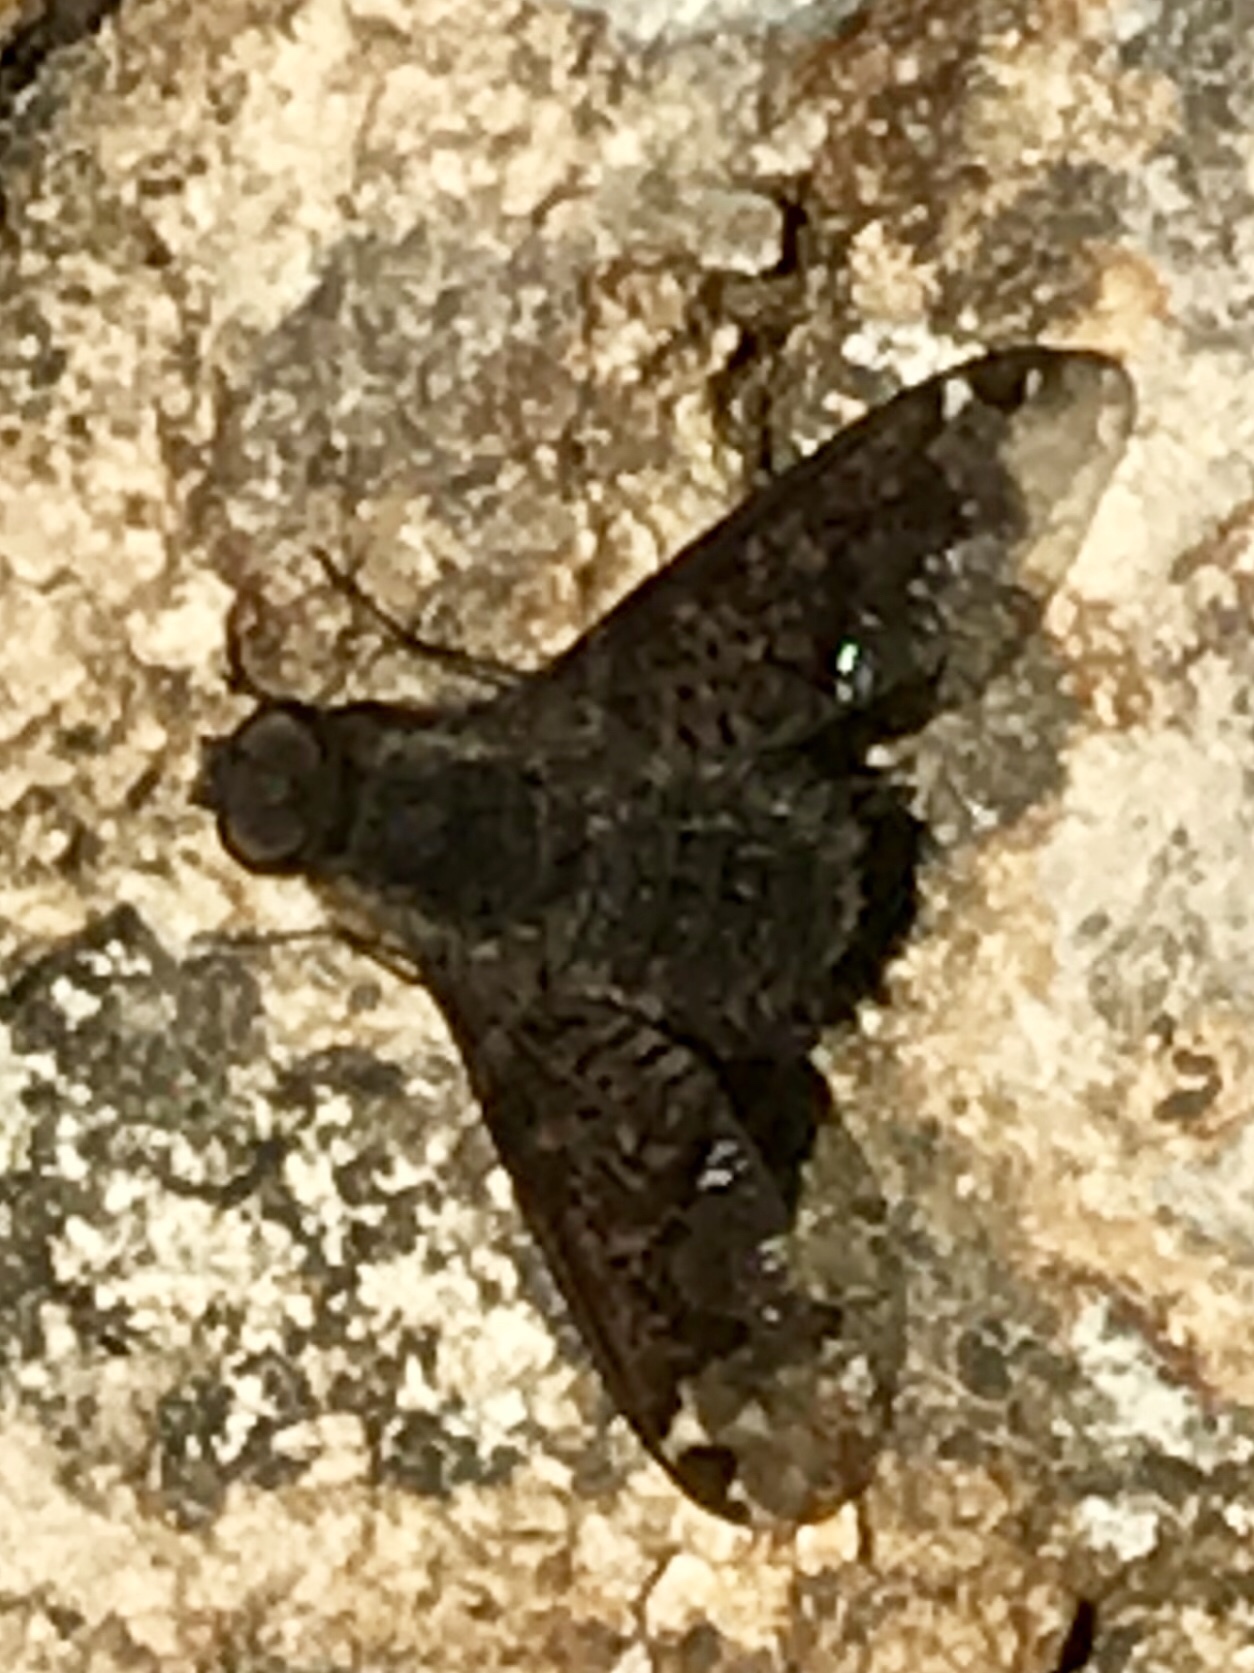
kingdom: Animalia
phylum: Arthropoda
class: Insecta
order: Diptera
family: Bombyliidae
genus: Hemipenthes
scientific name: Hemipenthes
